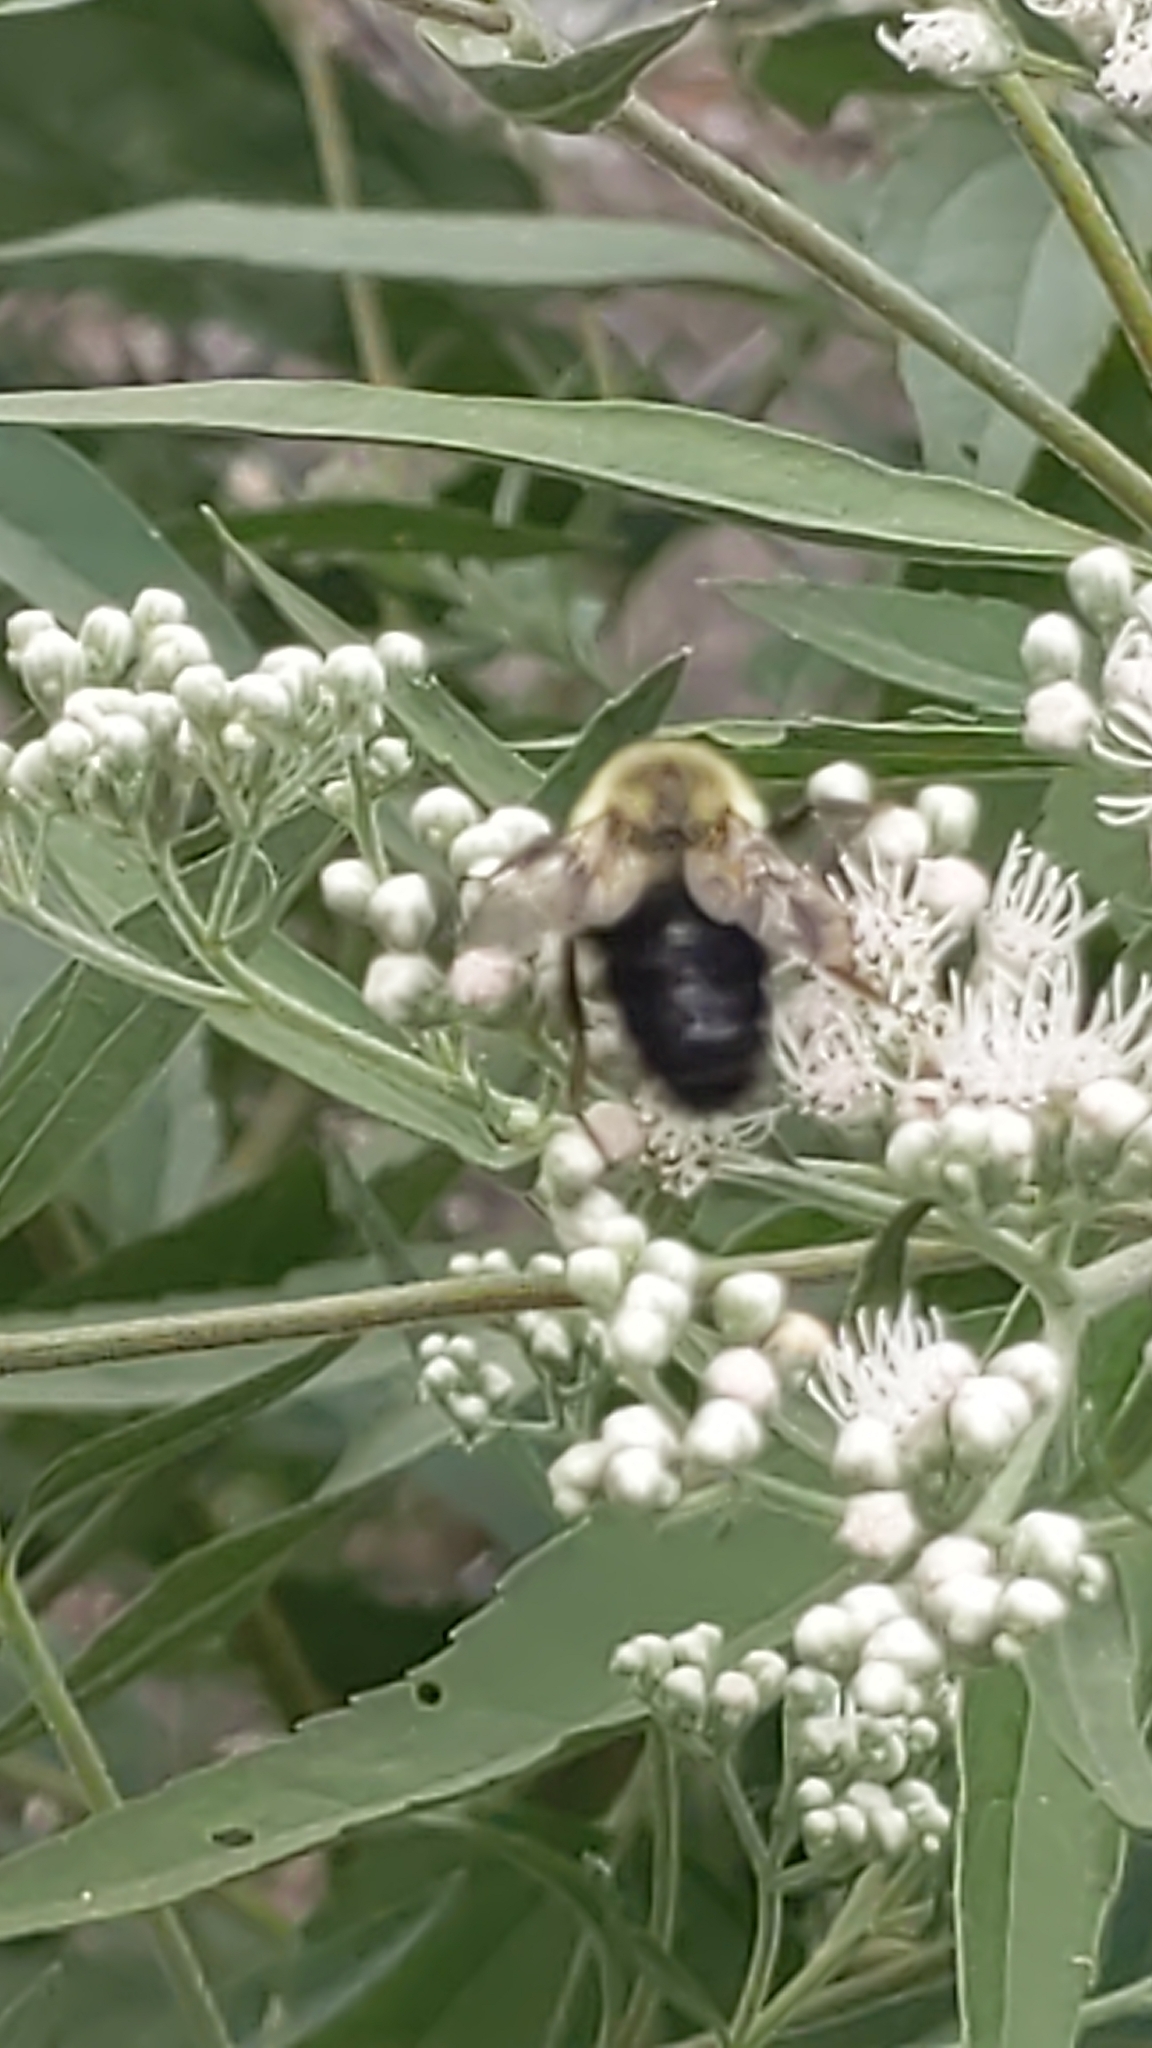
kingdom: Animalia
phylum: Arthropoda
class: Insecta
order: Hymenoptera
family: Apidae
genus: Bombus
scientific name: Bombus impatiens
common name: Common eastern bumble bee
